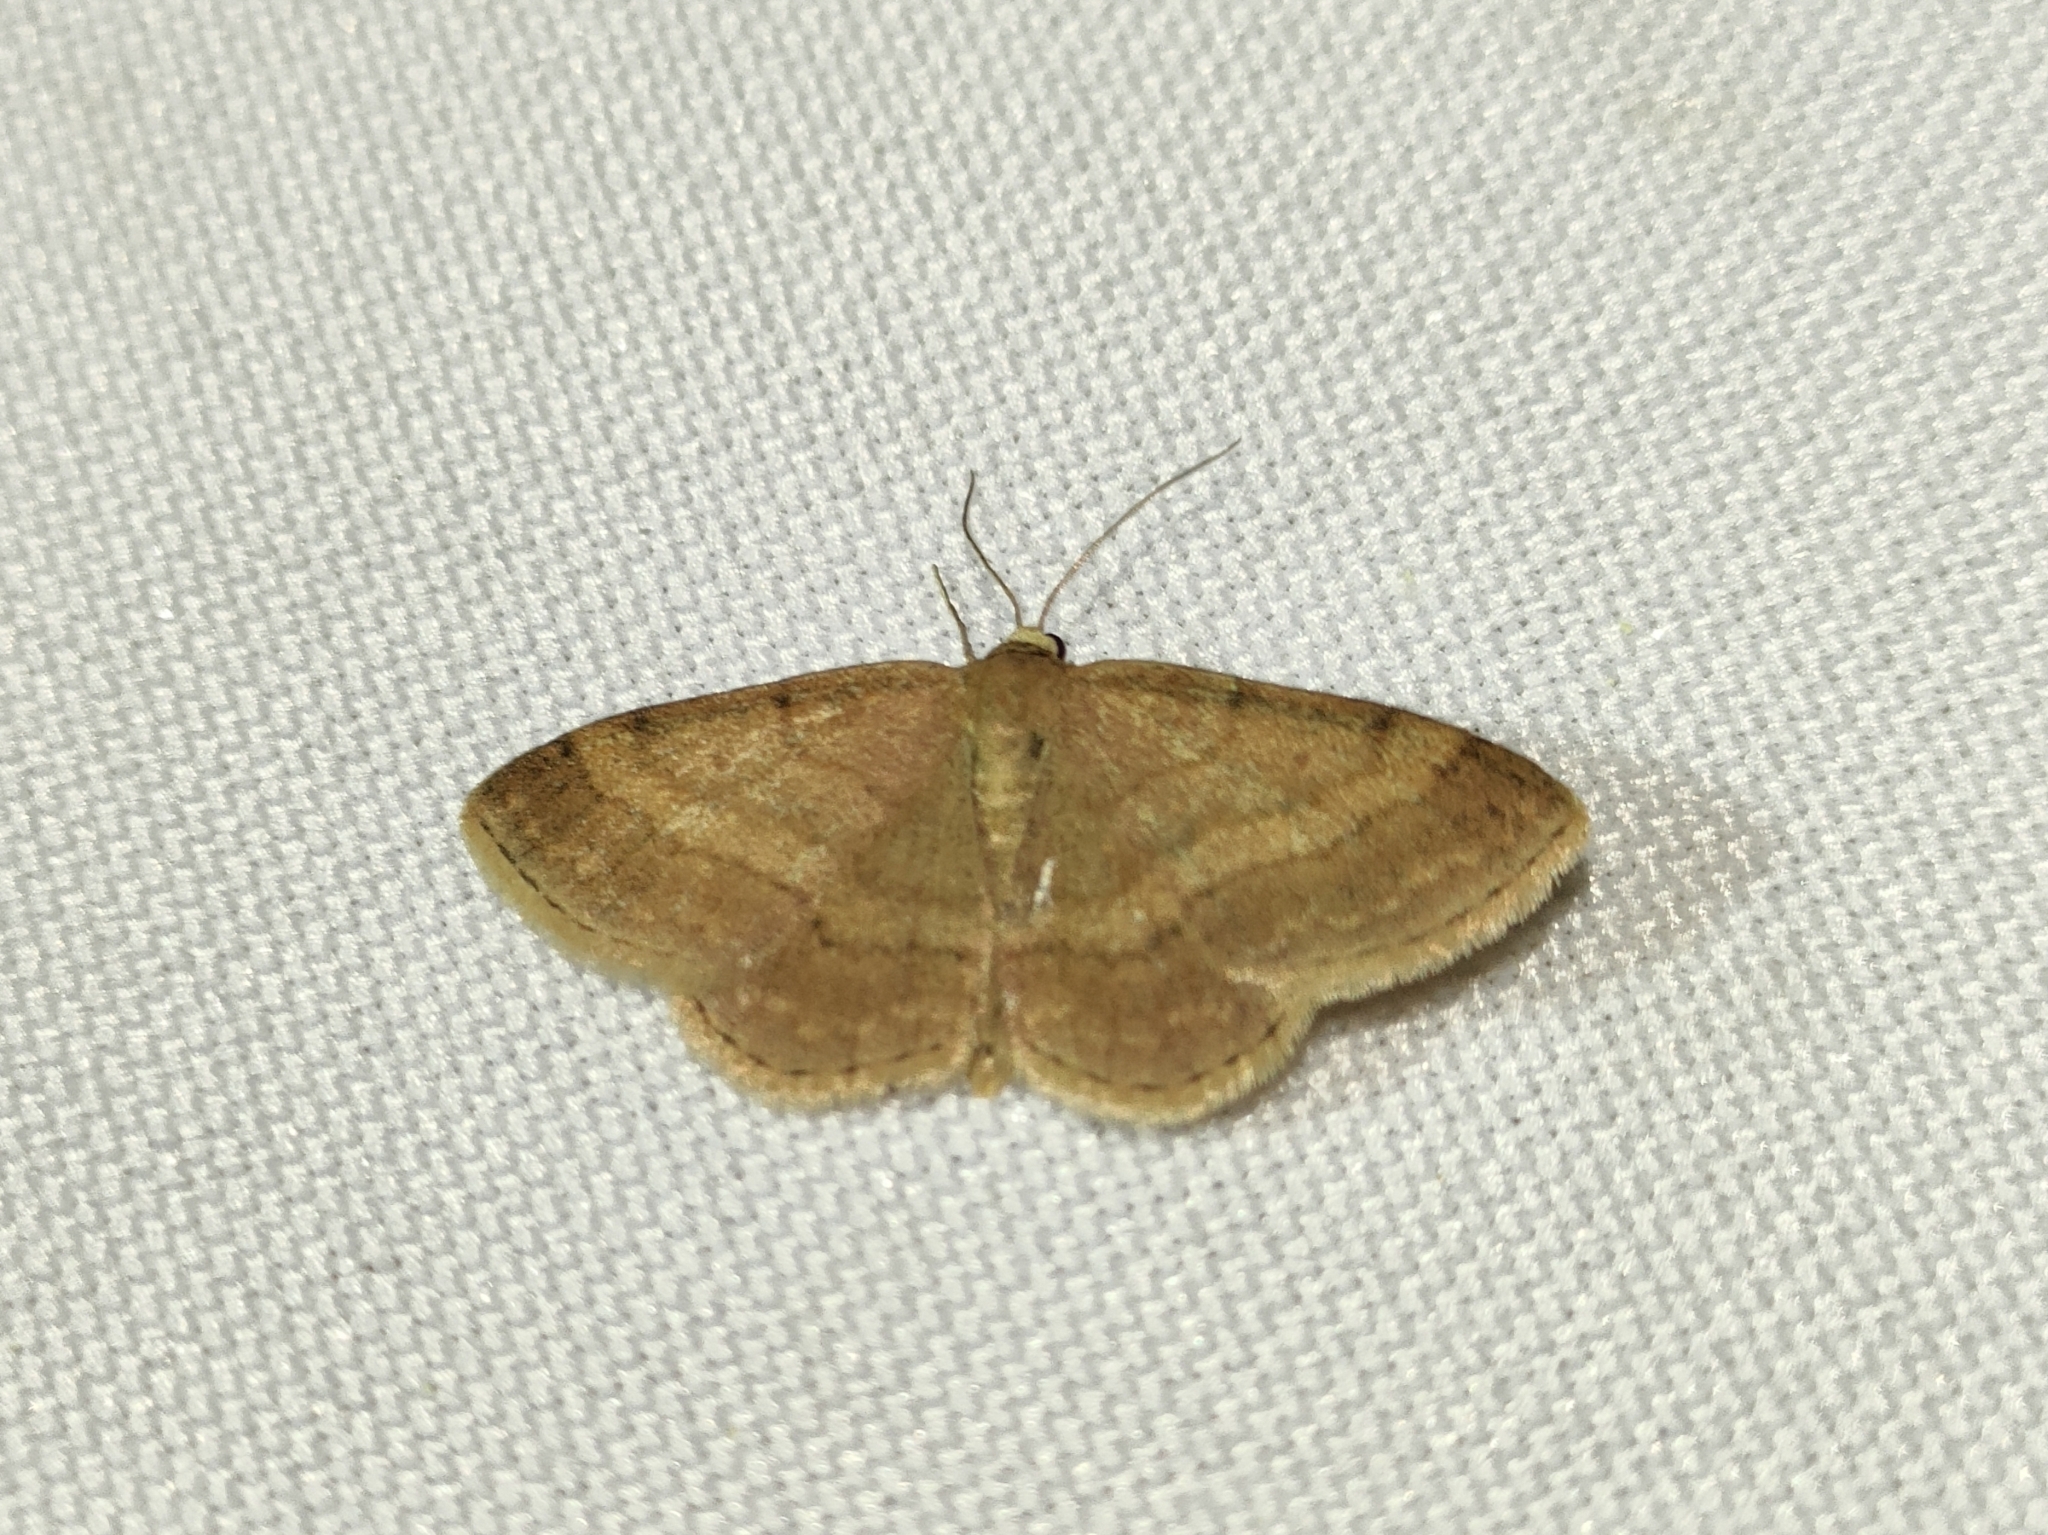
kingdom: Animalia
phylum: Arthropoda
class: Insecta
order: Lepidoptera
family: Geometridae
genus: Scopula
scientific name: Scopula rubiginata
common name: Tawny wave
